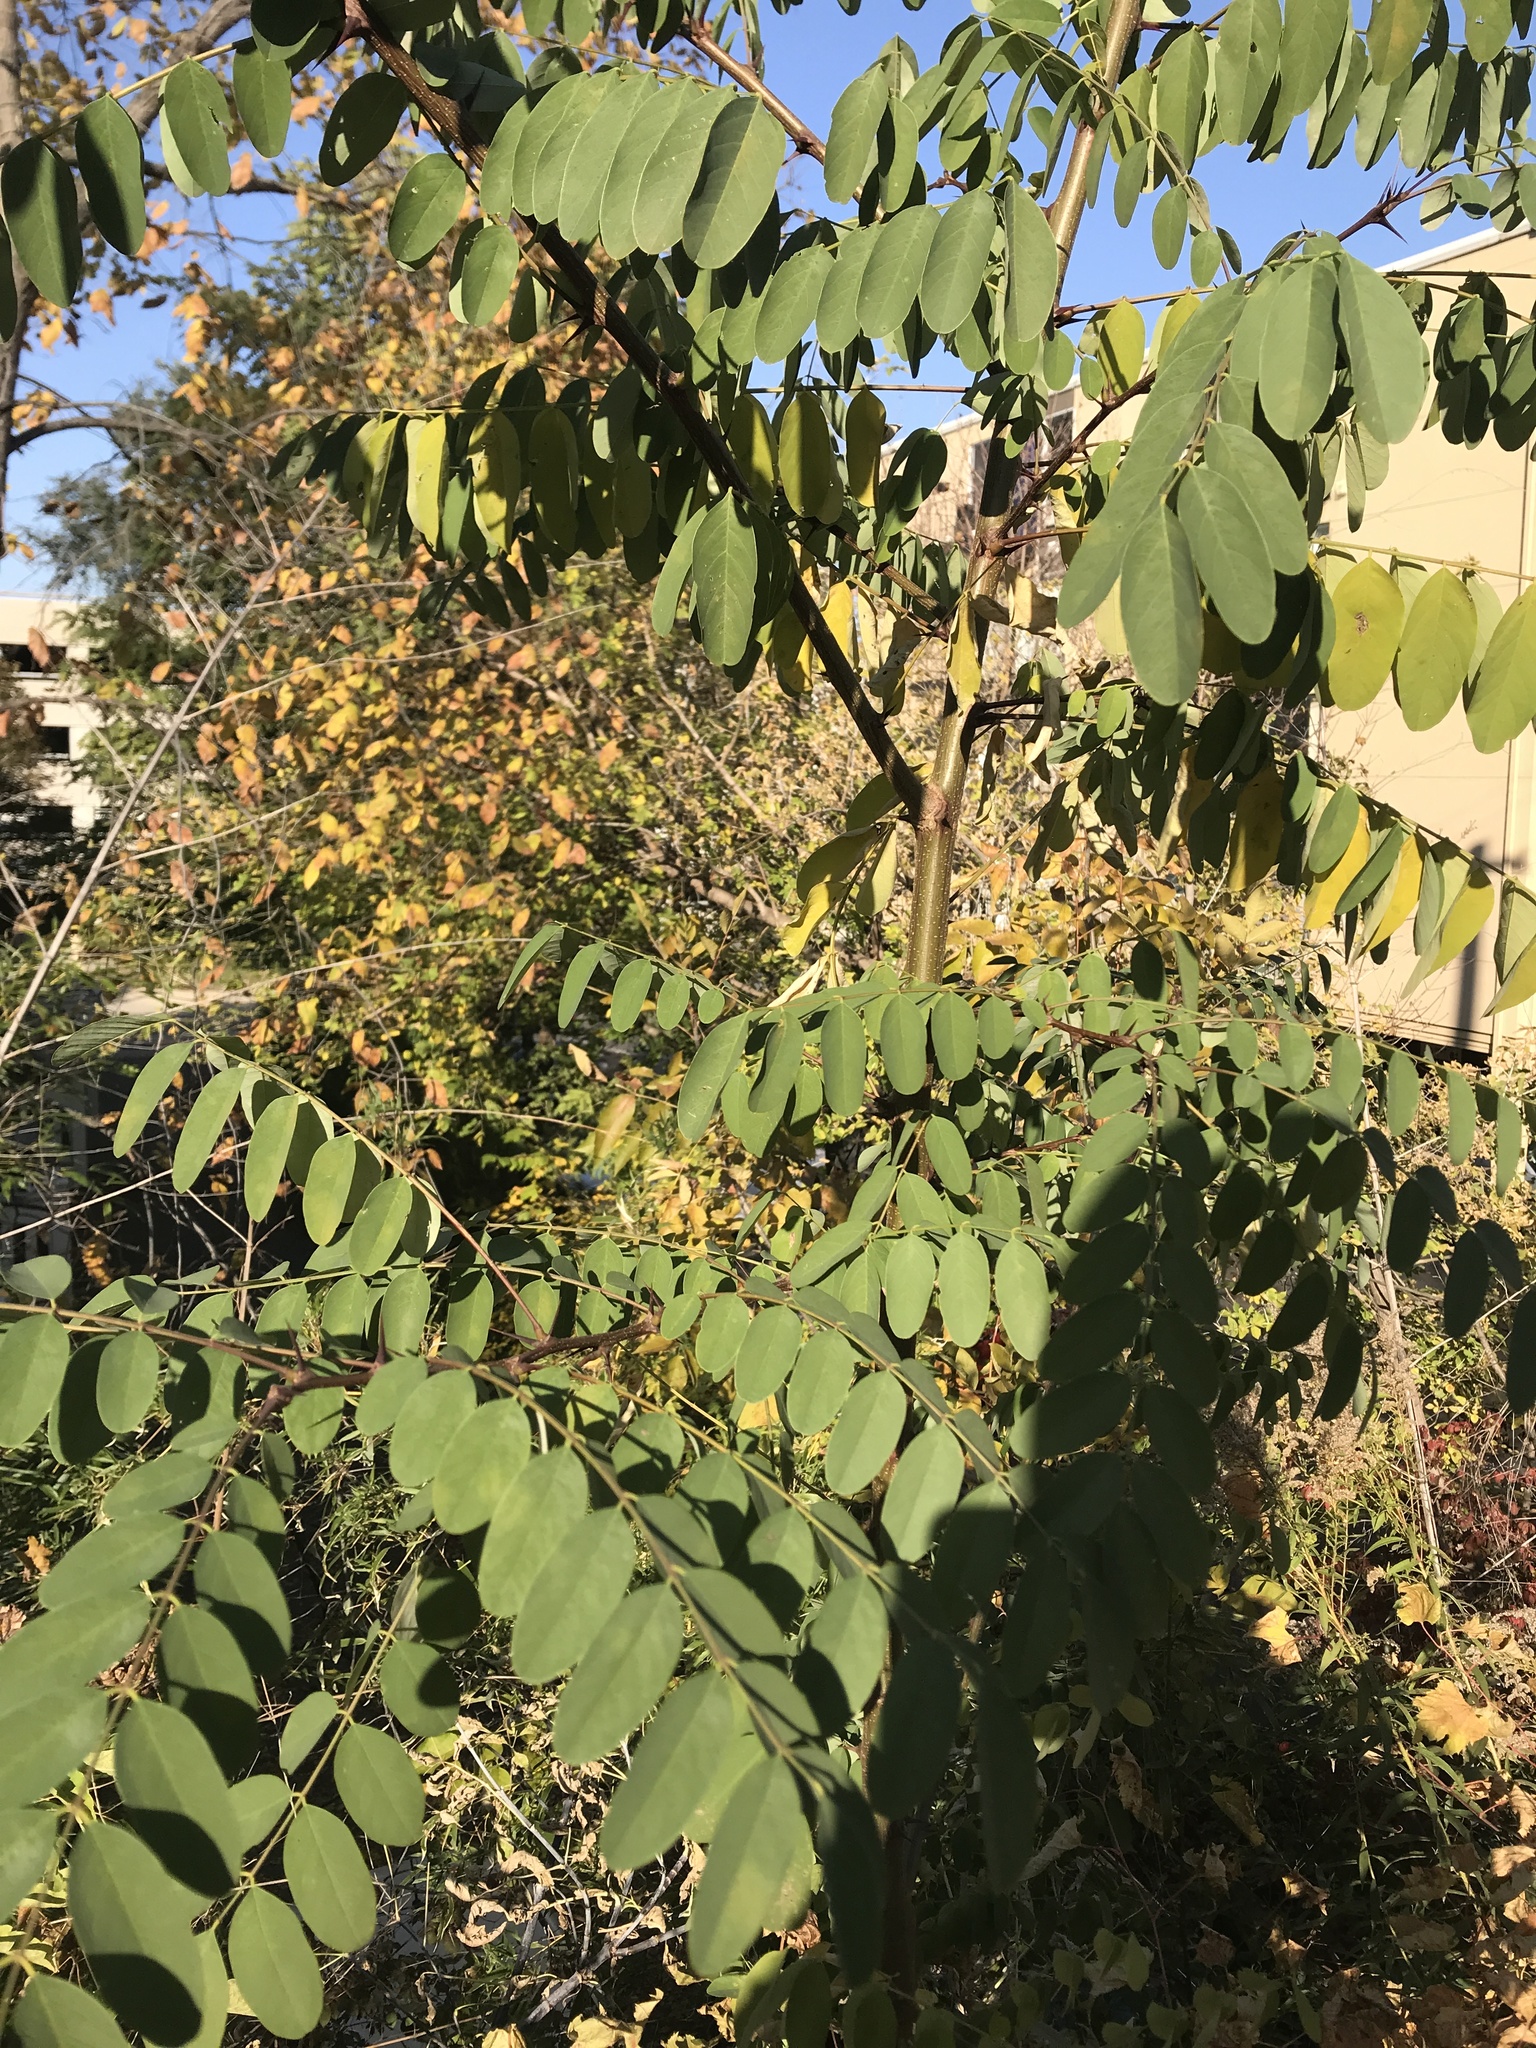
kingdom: Plantae
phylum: Tracheophyta
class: Magnoliopsida
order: Fabales
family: Fabaceae
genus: Robinia
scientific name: Robinia pseudoacacia
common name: Black locust
